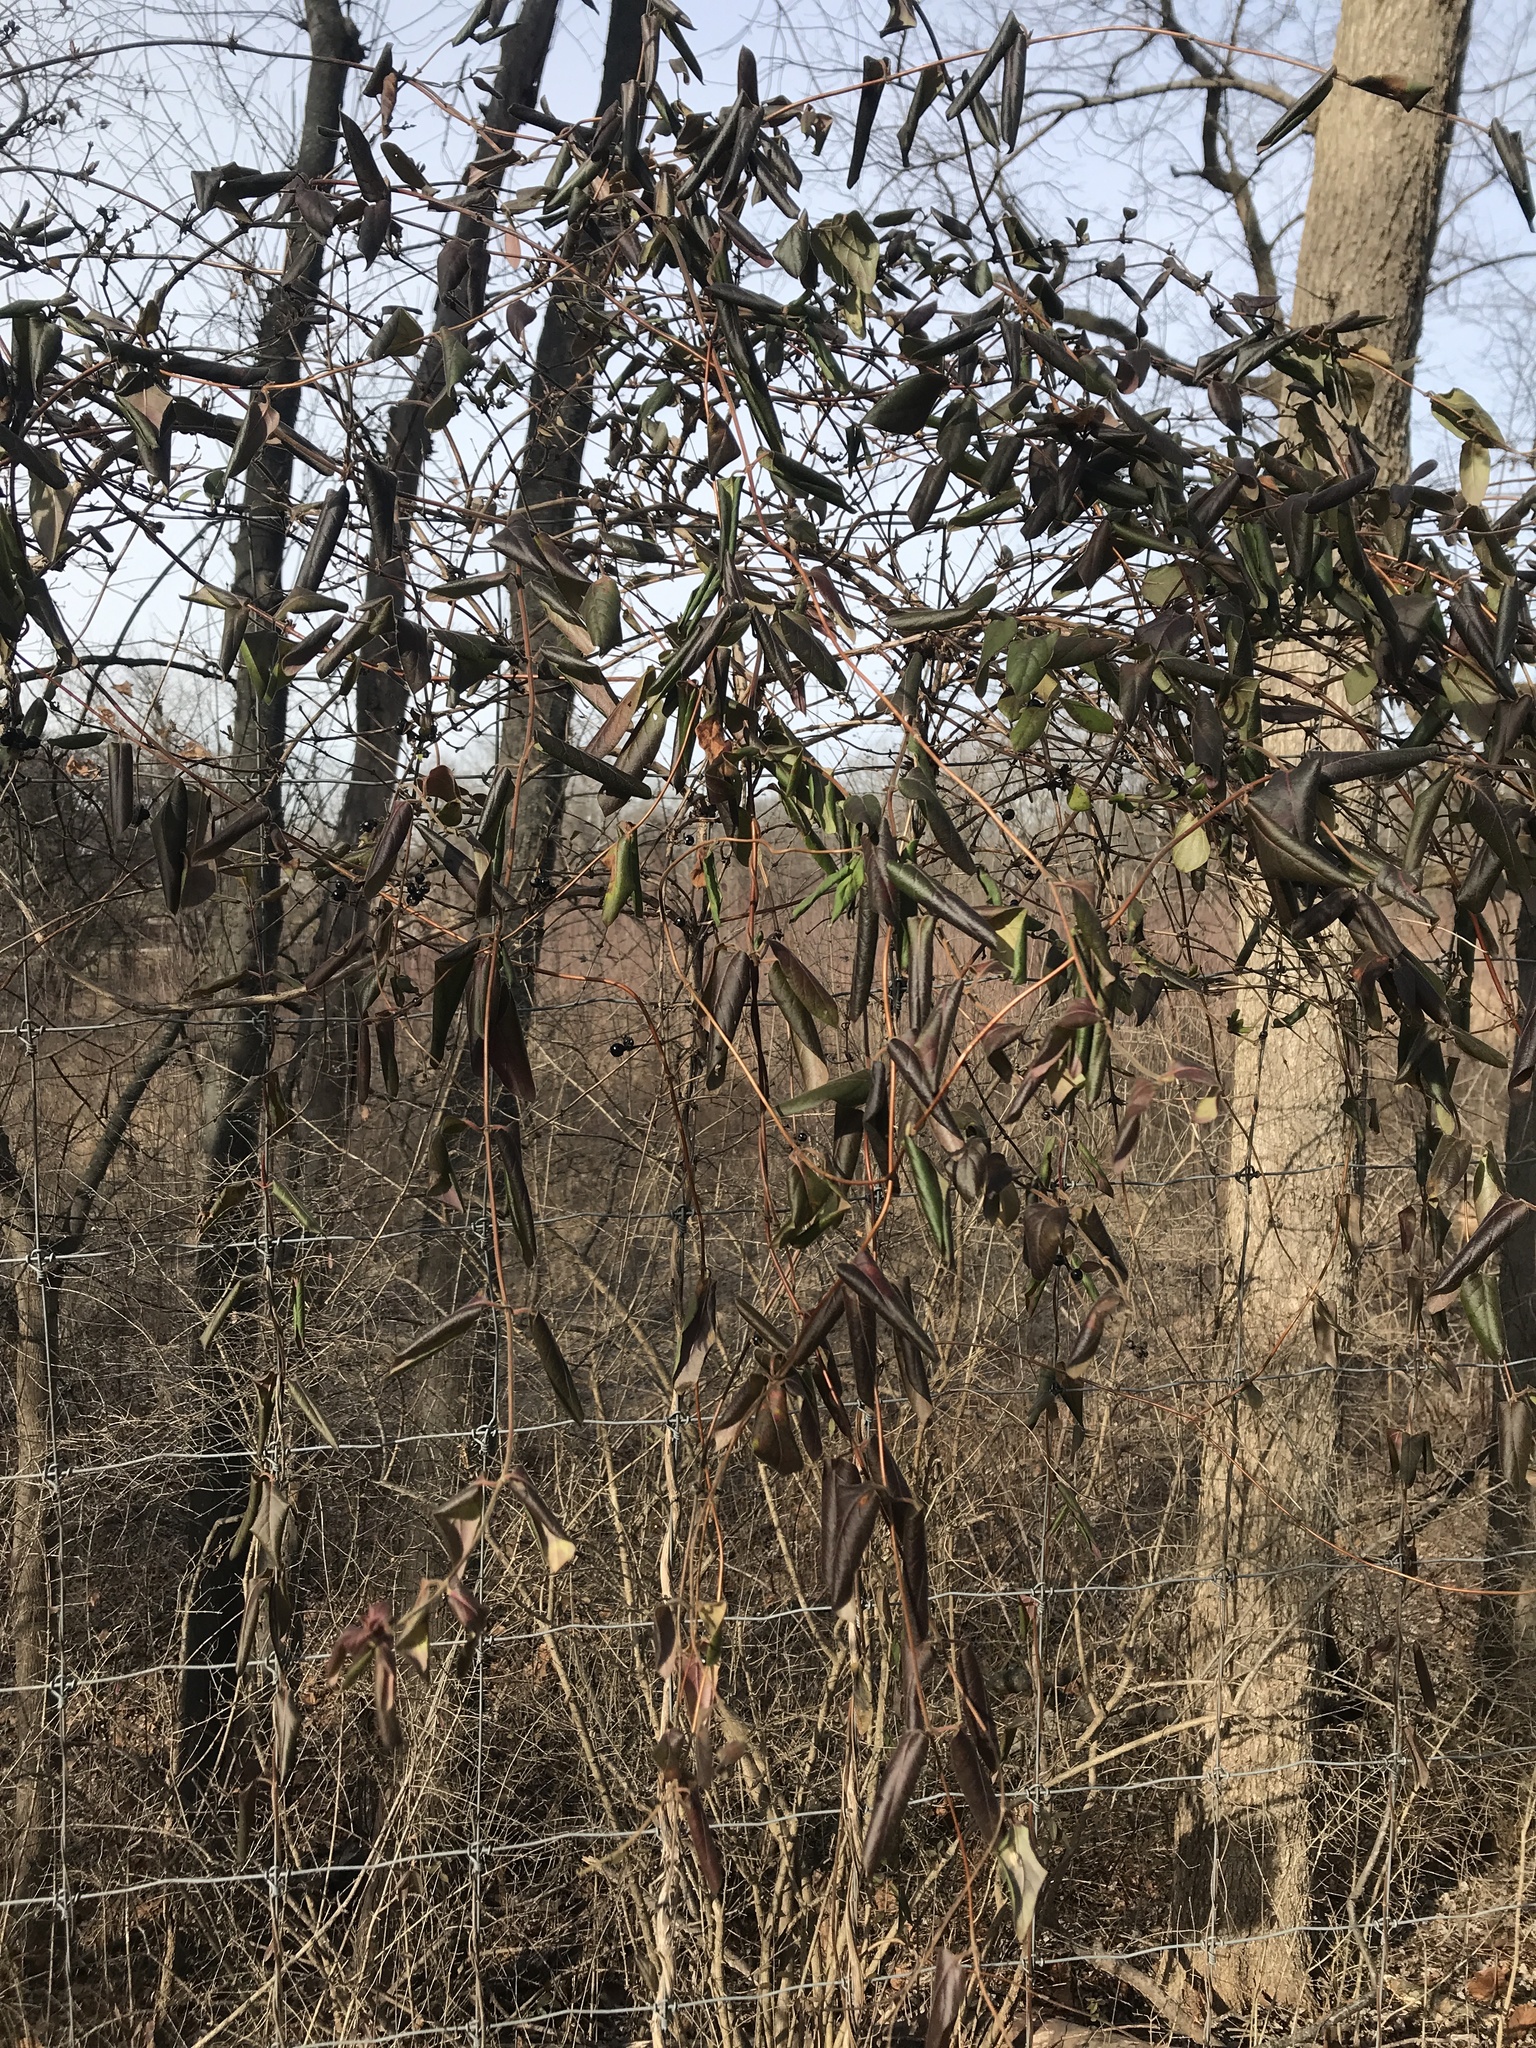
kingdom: Plantae
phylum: Tracheophyta
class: Magnoliopsida
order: Dipsacales
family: Caprifoliaceae
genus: Lonicera
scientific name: Lonicera japonica
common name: Japanese honeysuckle
